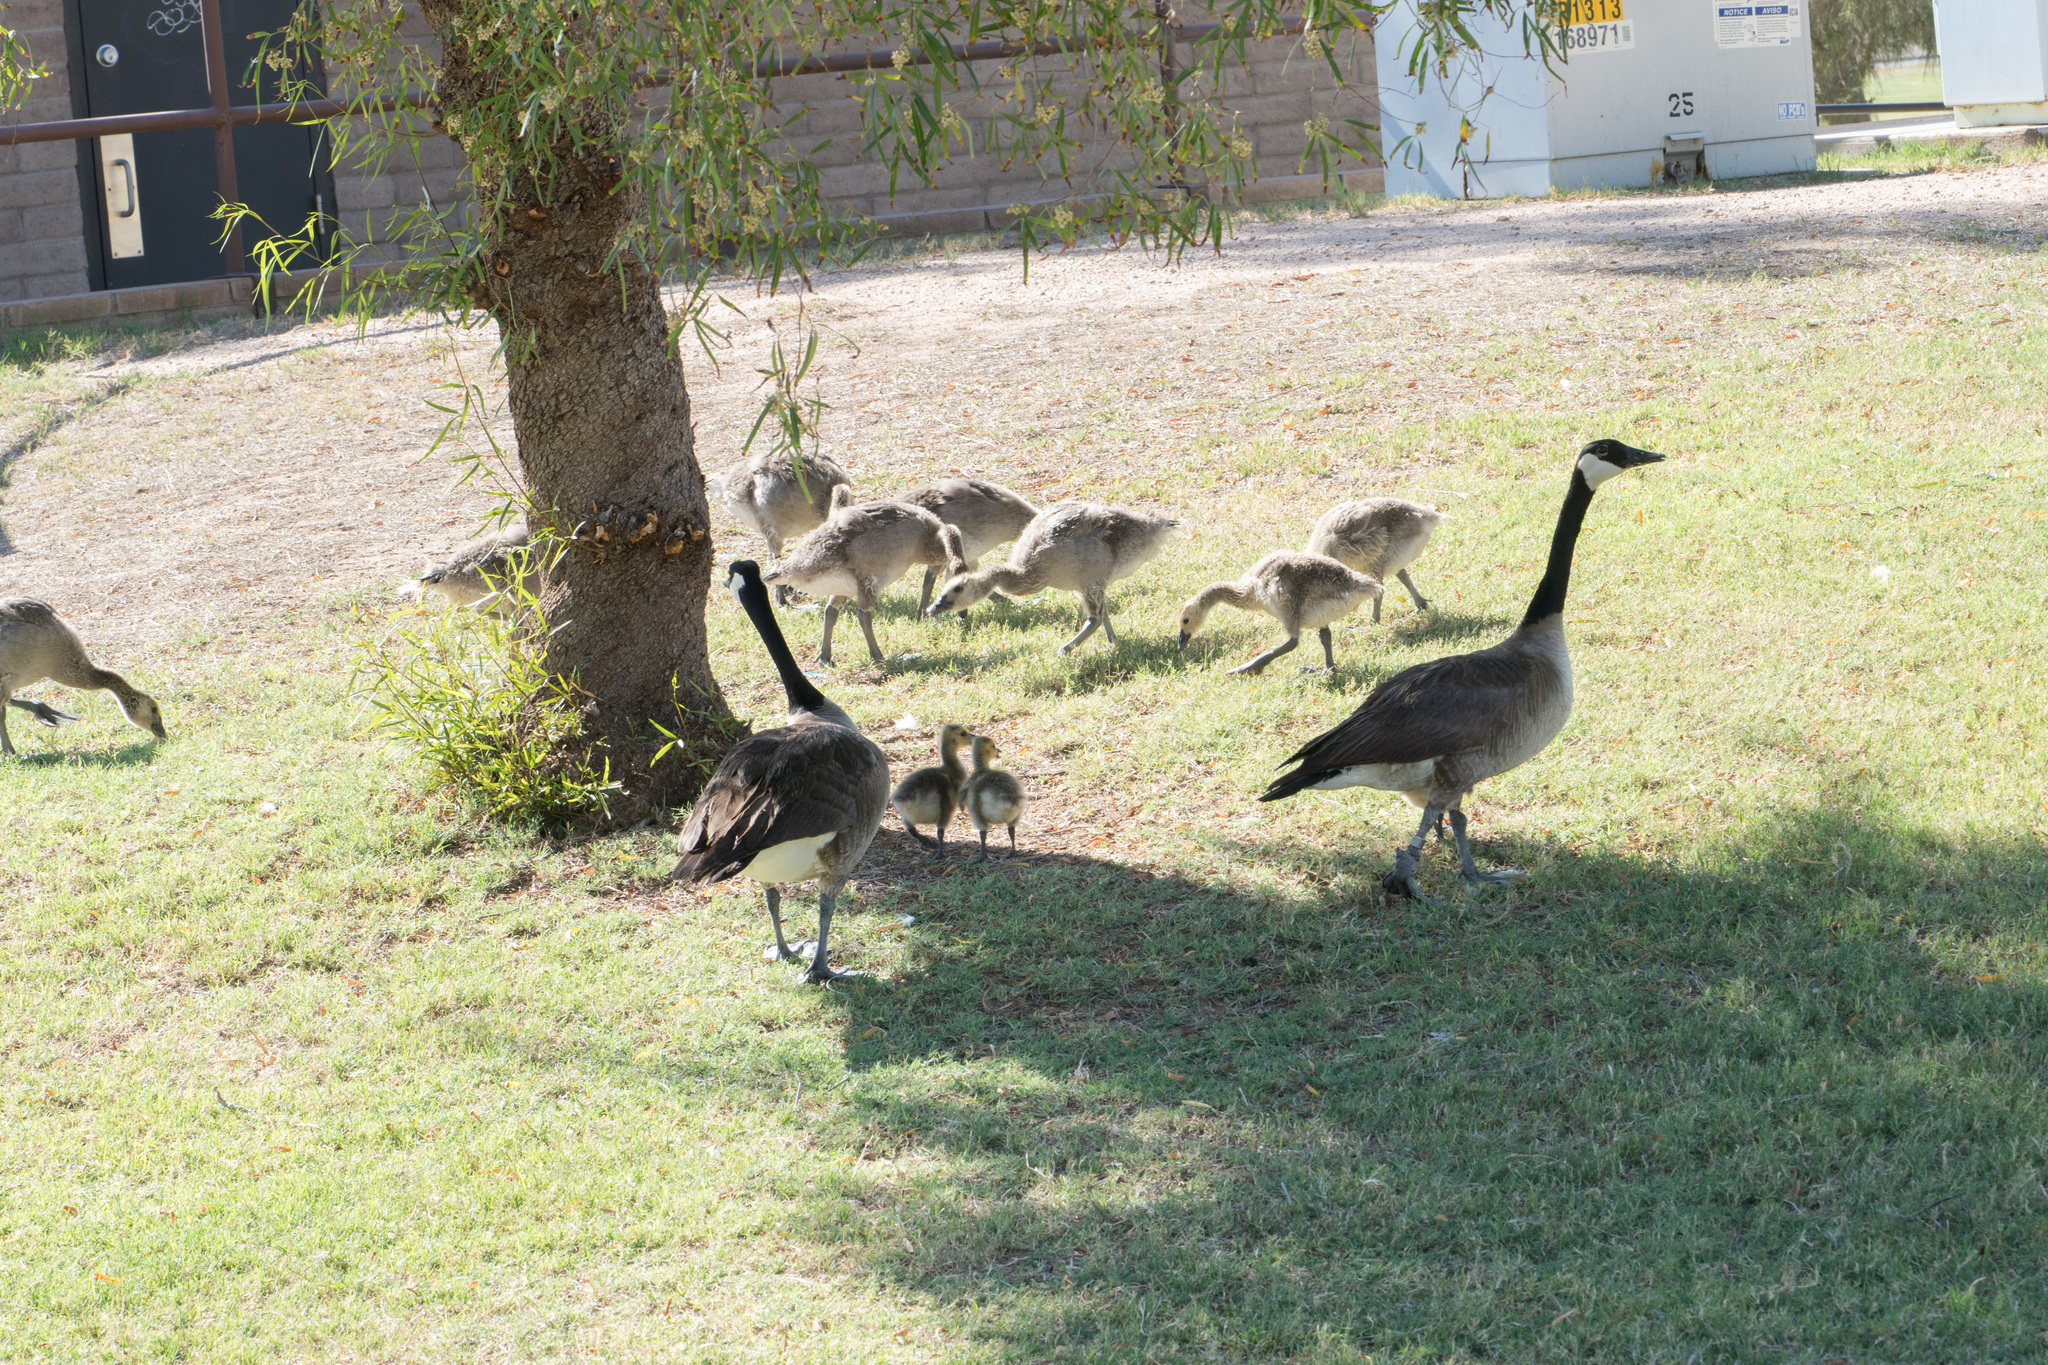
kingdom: Animalia
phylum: Chordata
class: Aves
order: Anseriformes
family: Anatidae
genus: Branta
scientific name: Branta canadensis
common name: Canada goose
